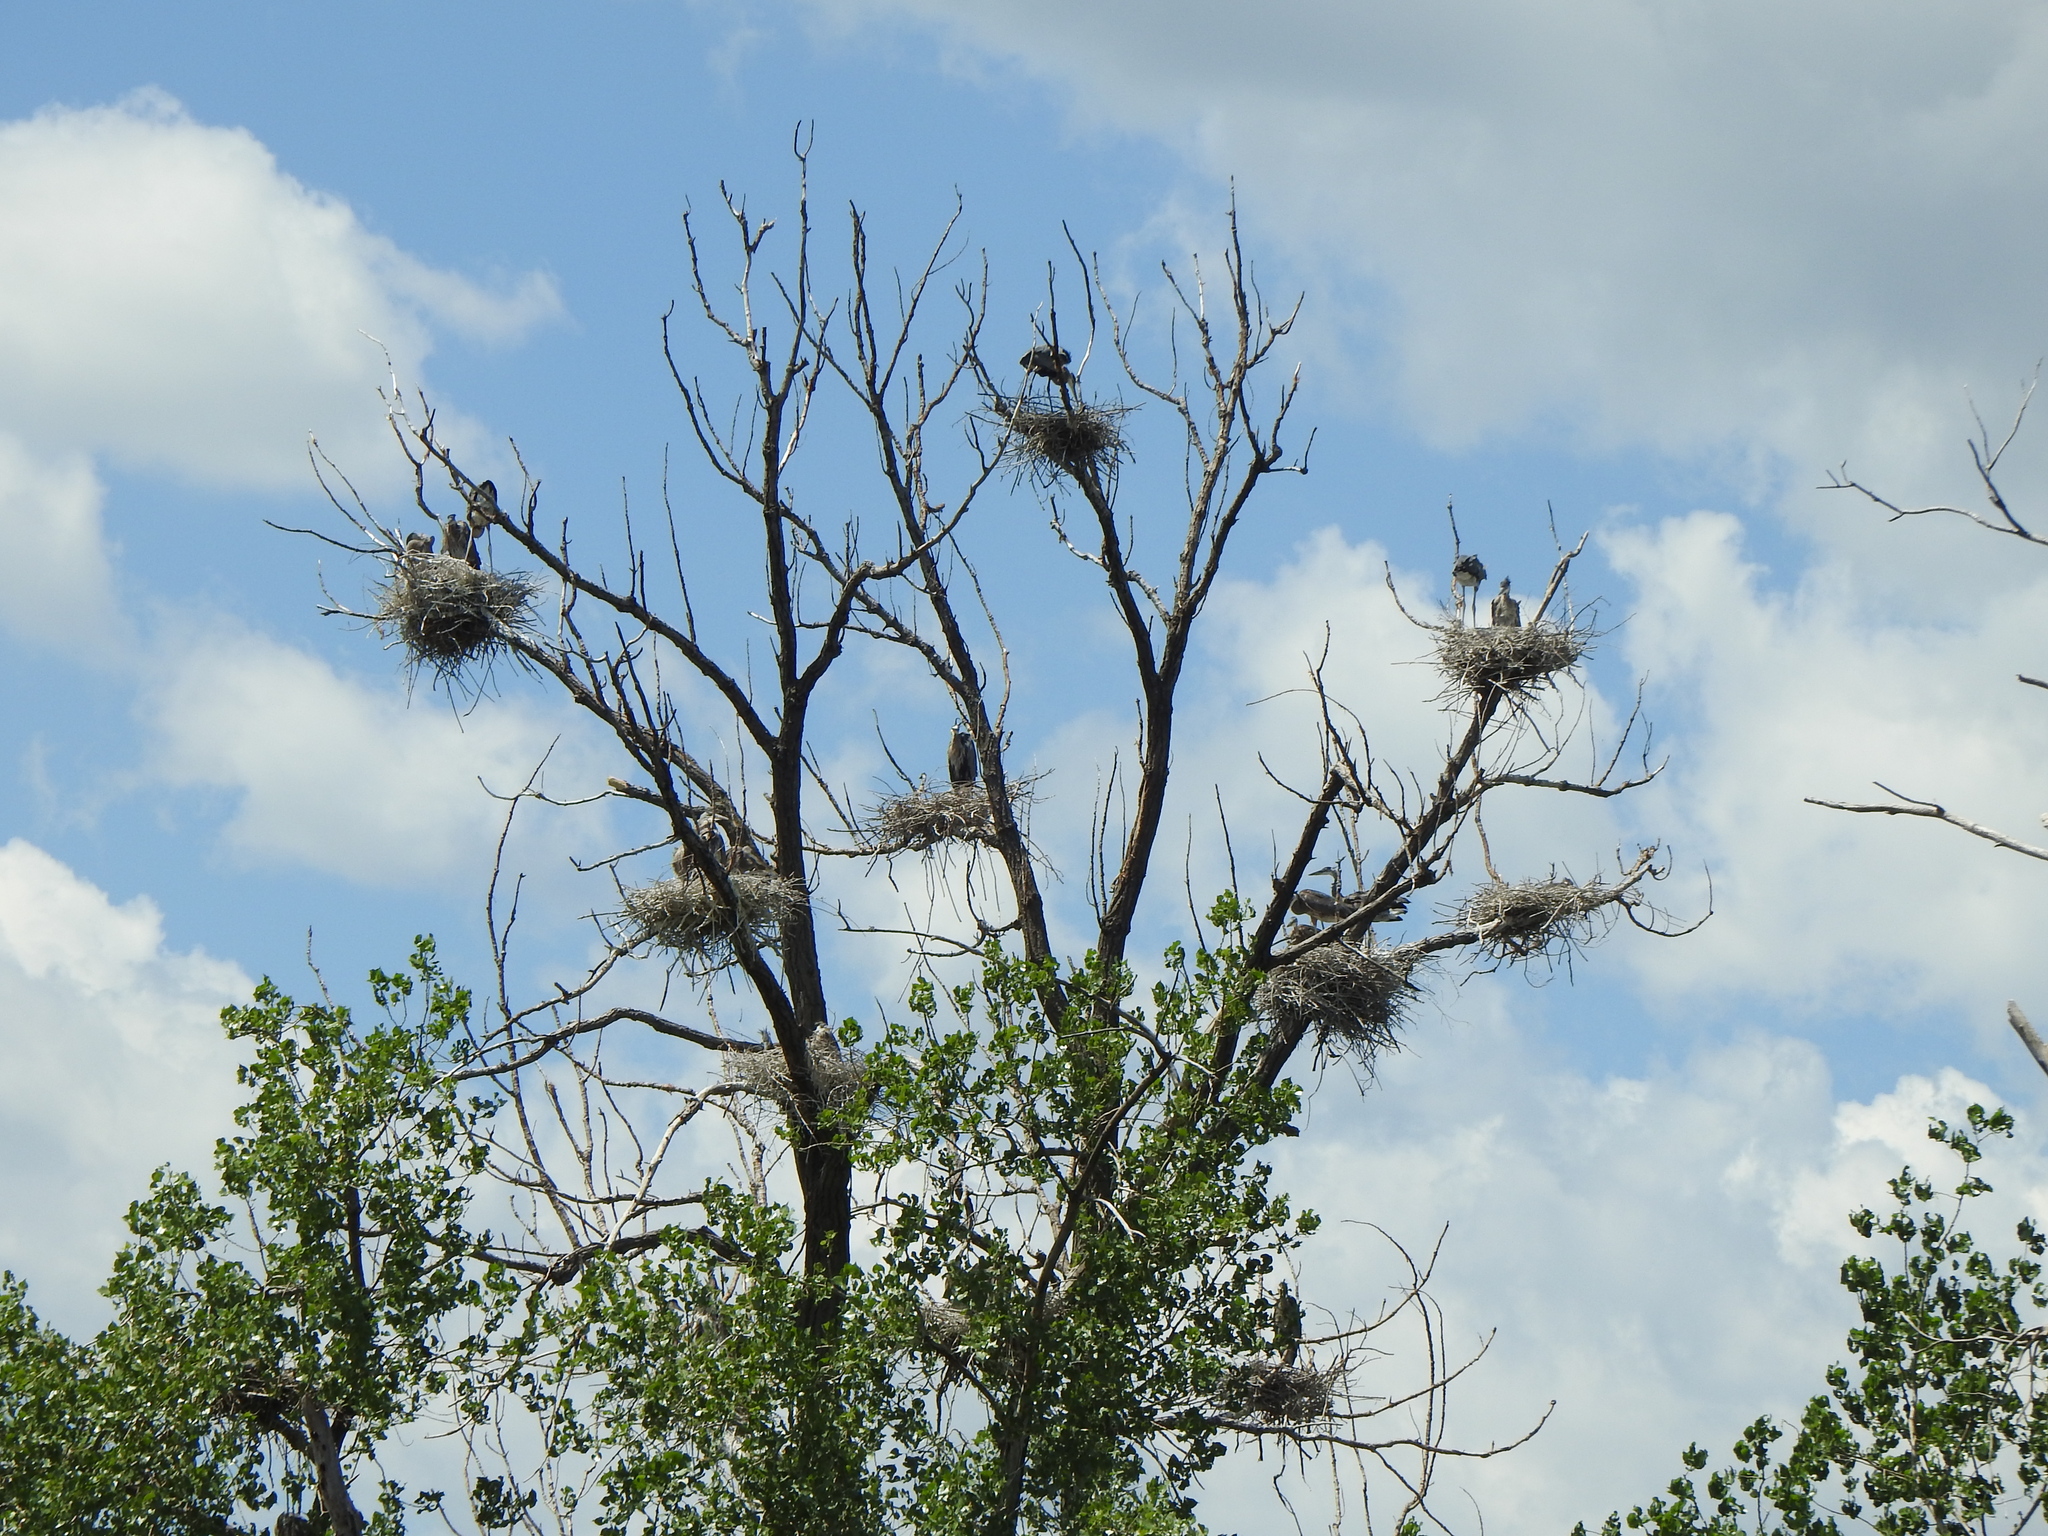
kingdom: Animalia
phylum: Chordata
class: Aves
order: Pelecaniformes
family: Ardeidae
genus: Ardea
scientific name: Ardea herodias
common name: Great blue heron
